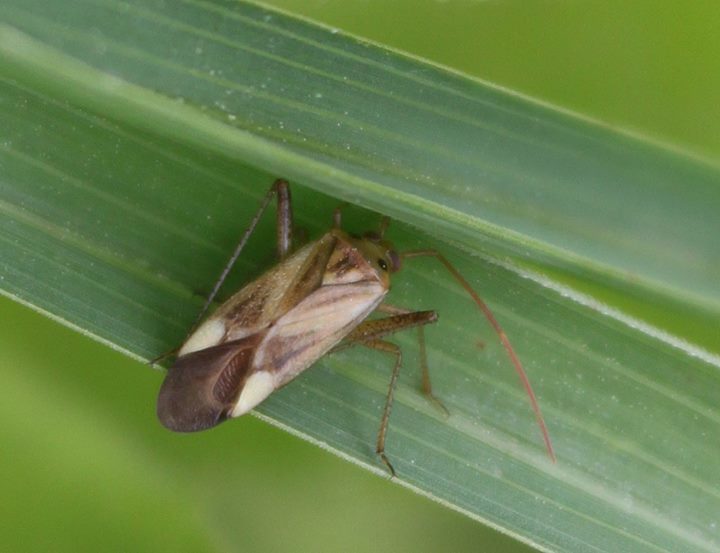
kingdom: Animalia
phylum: Arthropoda
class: Insecta
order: Hemiptera
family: Miridae
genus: Adelphocoris
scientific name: Adelphocoris lineolatus
